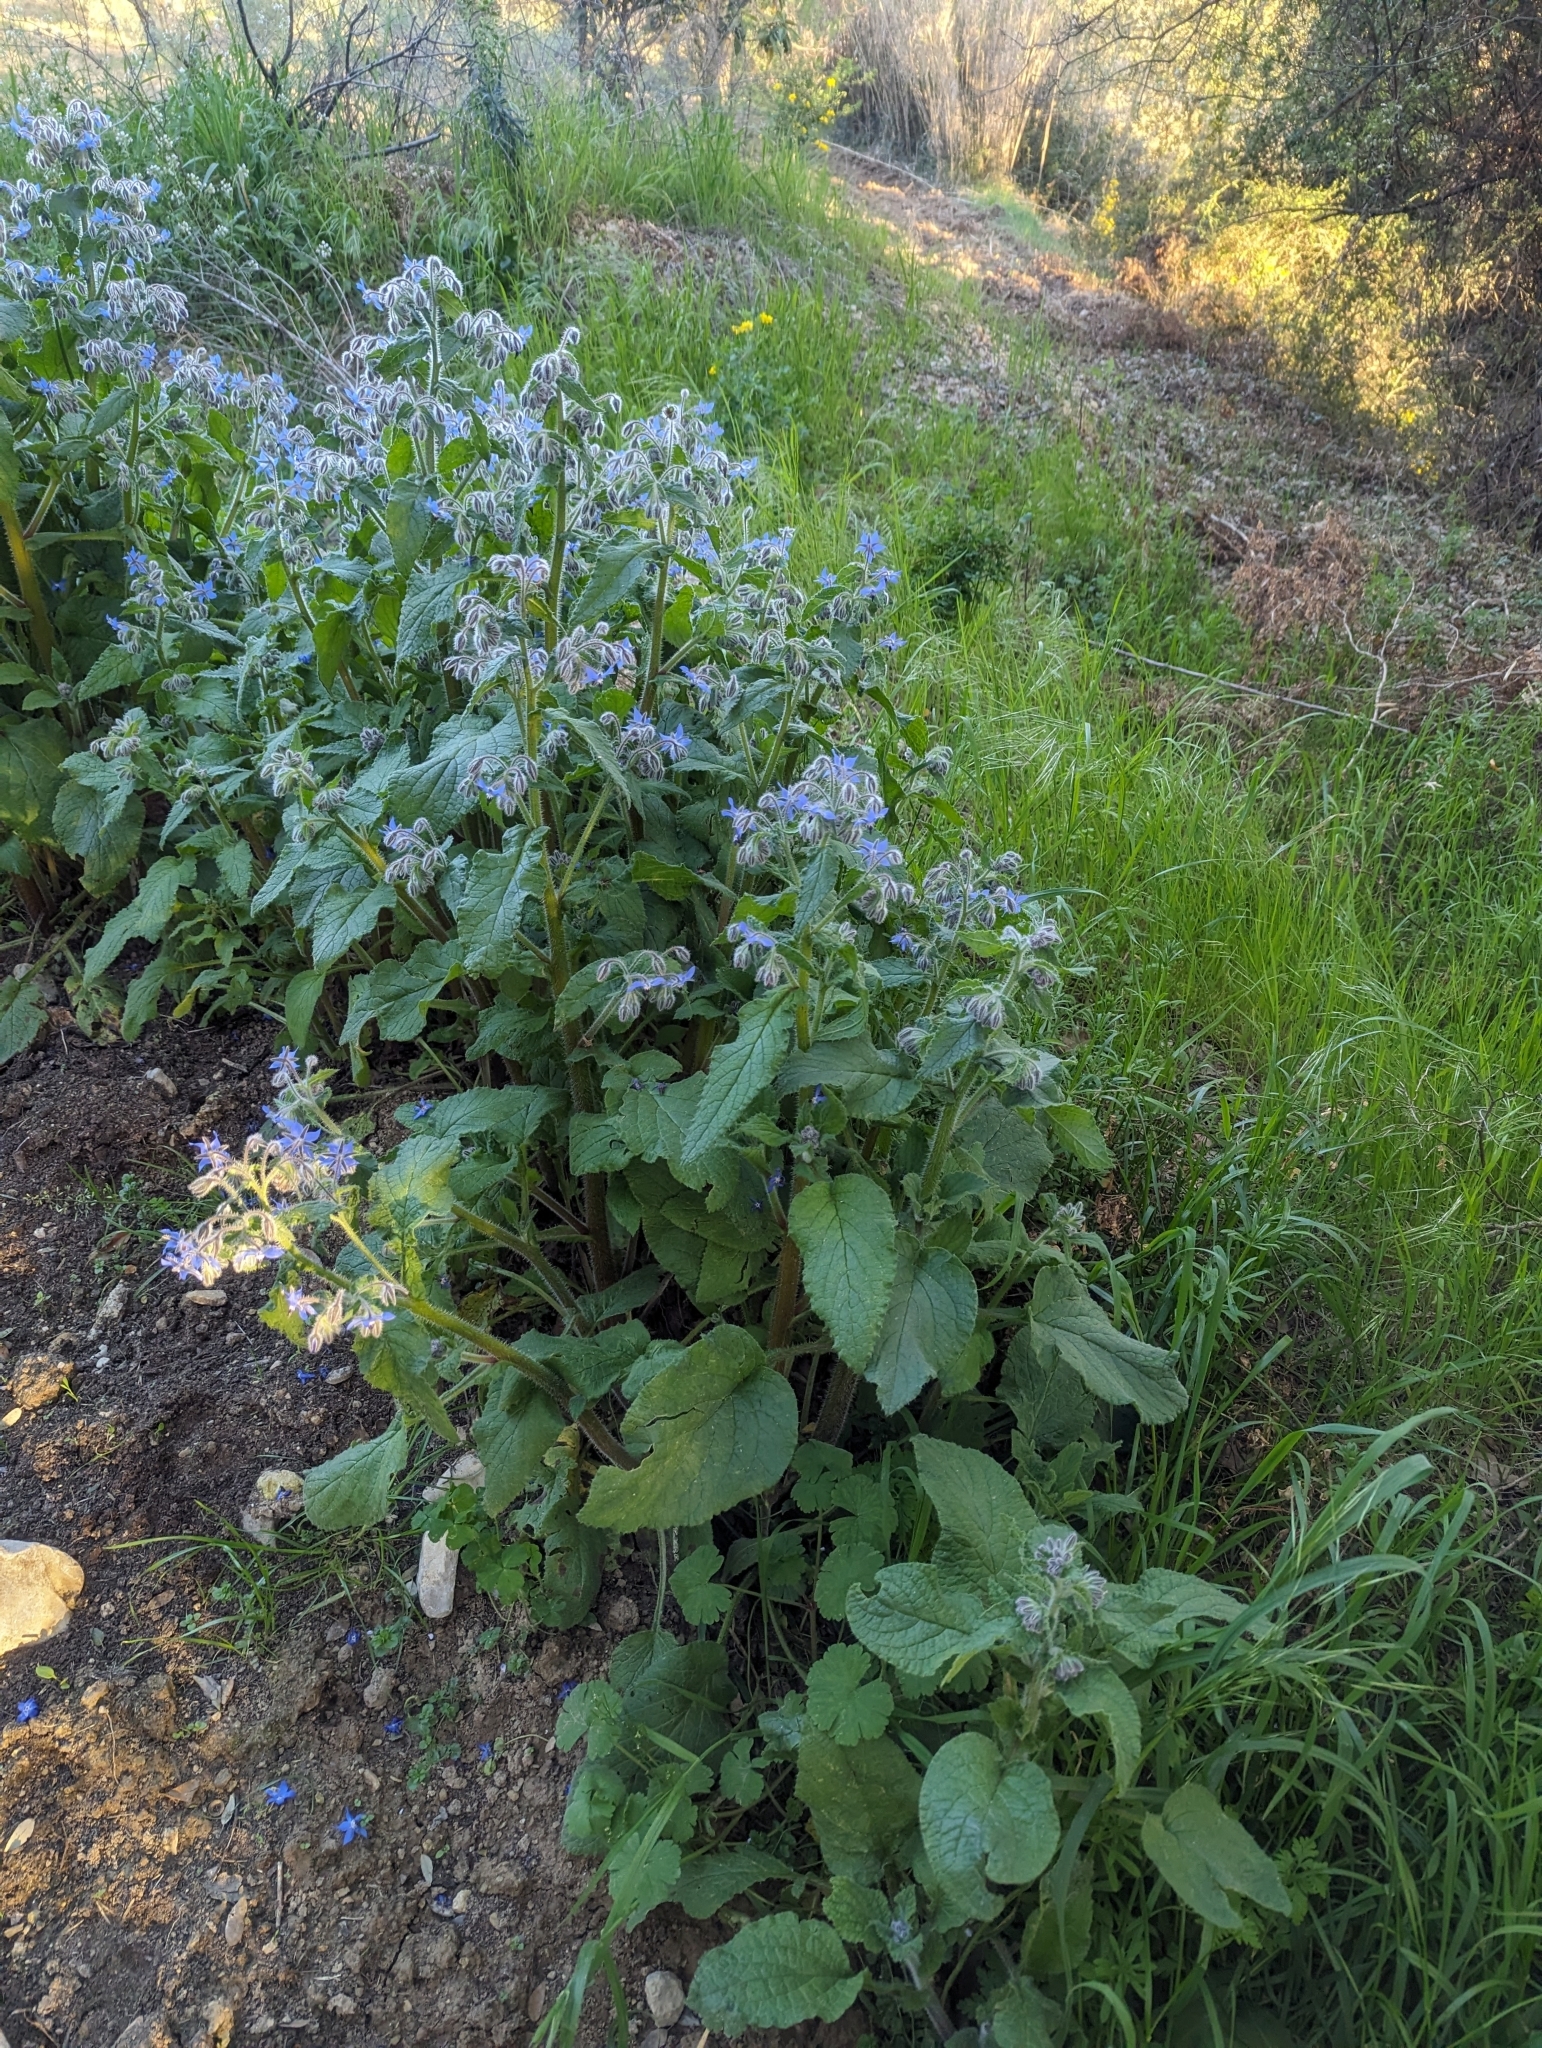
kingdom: Plantae
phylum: Tracheophyta
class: Magnoliopsida
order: Boraginales
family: Boraginaceae
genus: Borago
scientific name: Borago officinalis
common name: Borage
